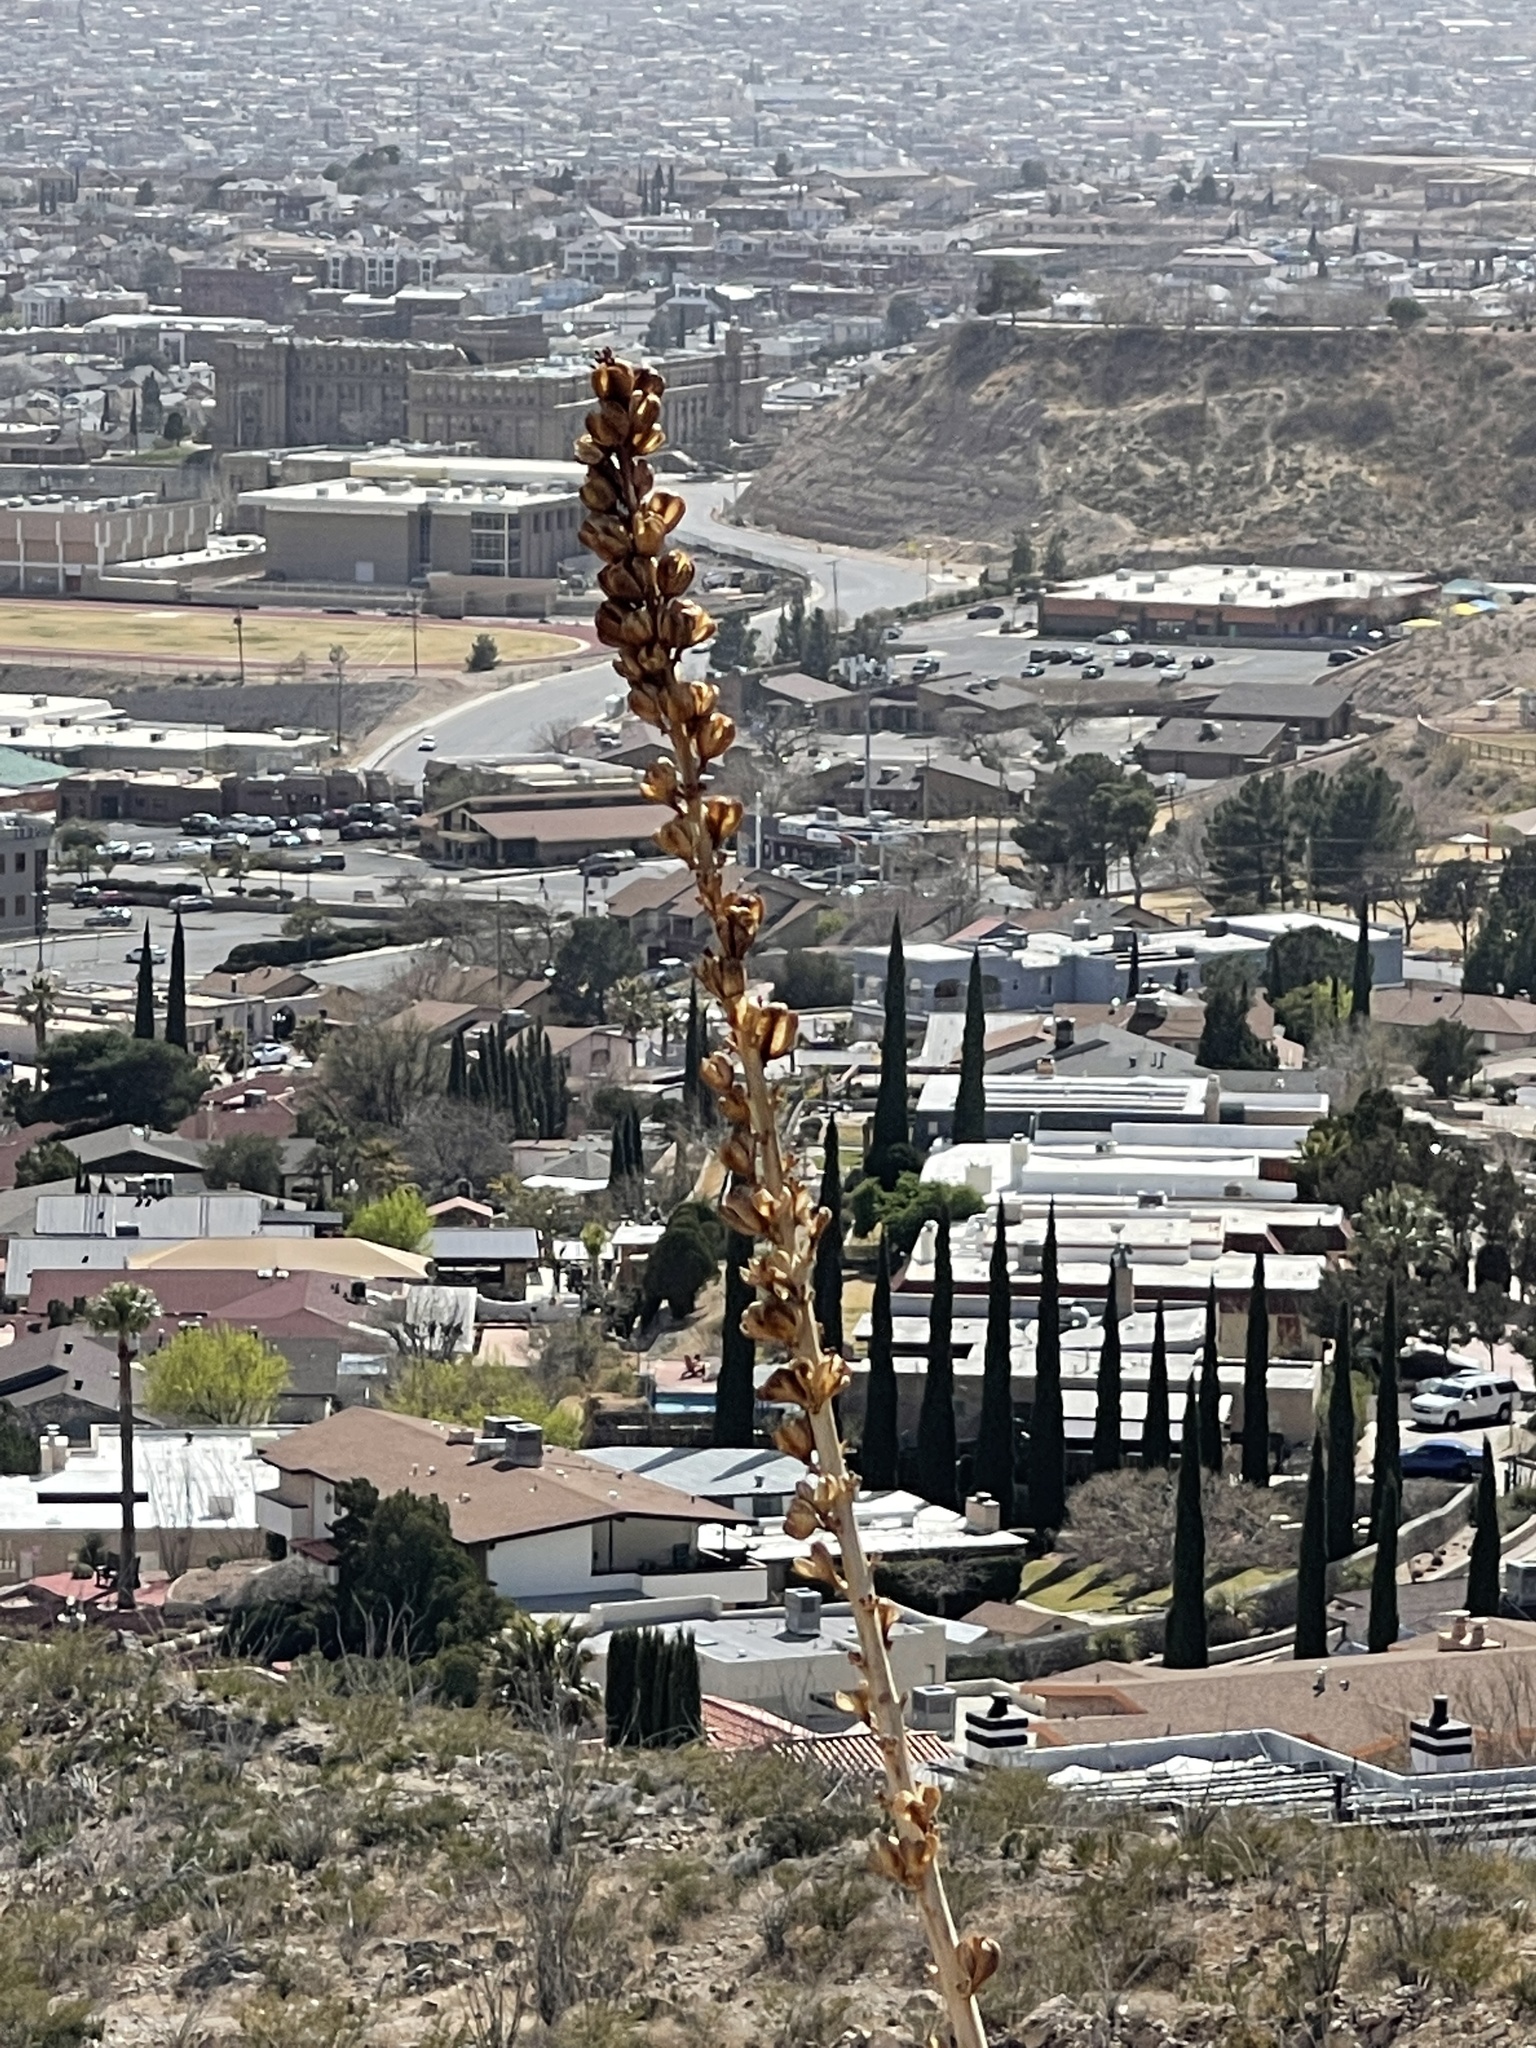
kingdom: Plantae
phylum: Tracheophyta
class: Liliopsida
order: Asparagales
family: Asparagaceae
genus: Agave
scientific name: Agave lechuguilla
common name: Lecheguilla agave
